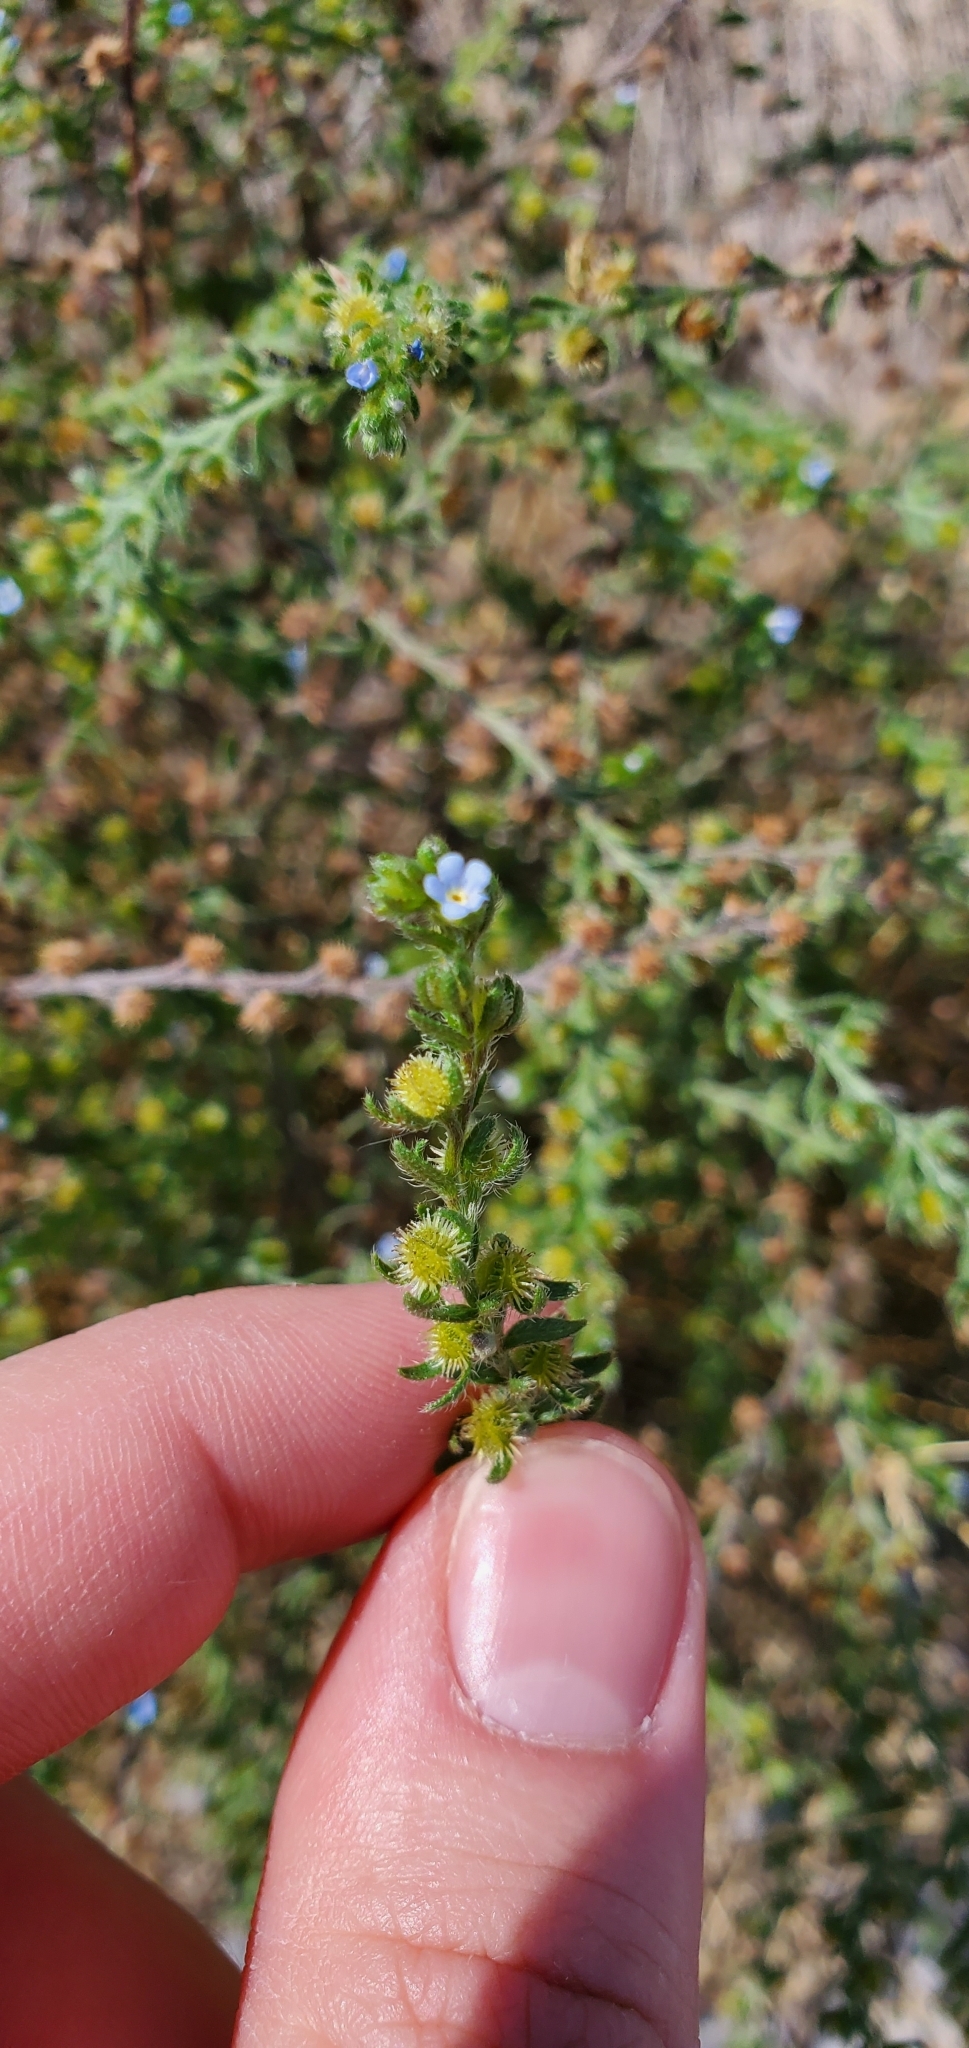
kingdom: Plantae
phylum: Tracheophyta
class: Magnoliopsida
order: Boraginales
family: Boraginaceae
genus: Lappula
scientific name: Lappula squarrosa
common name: European stickseed
